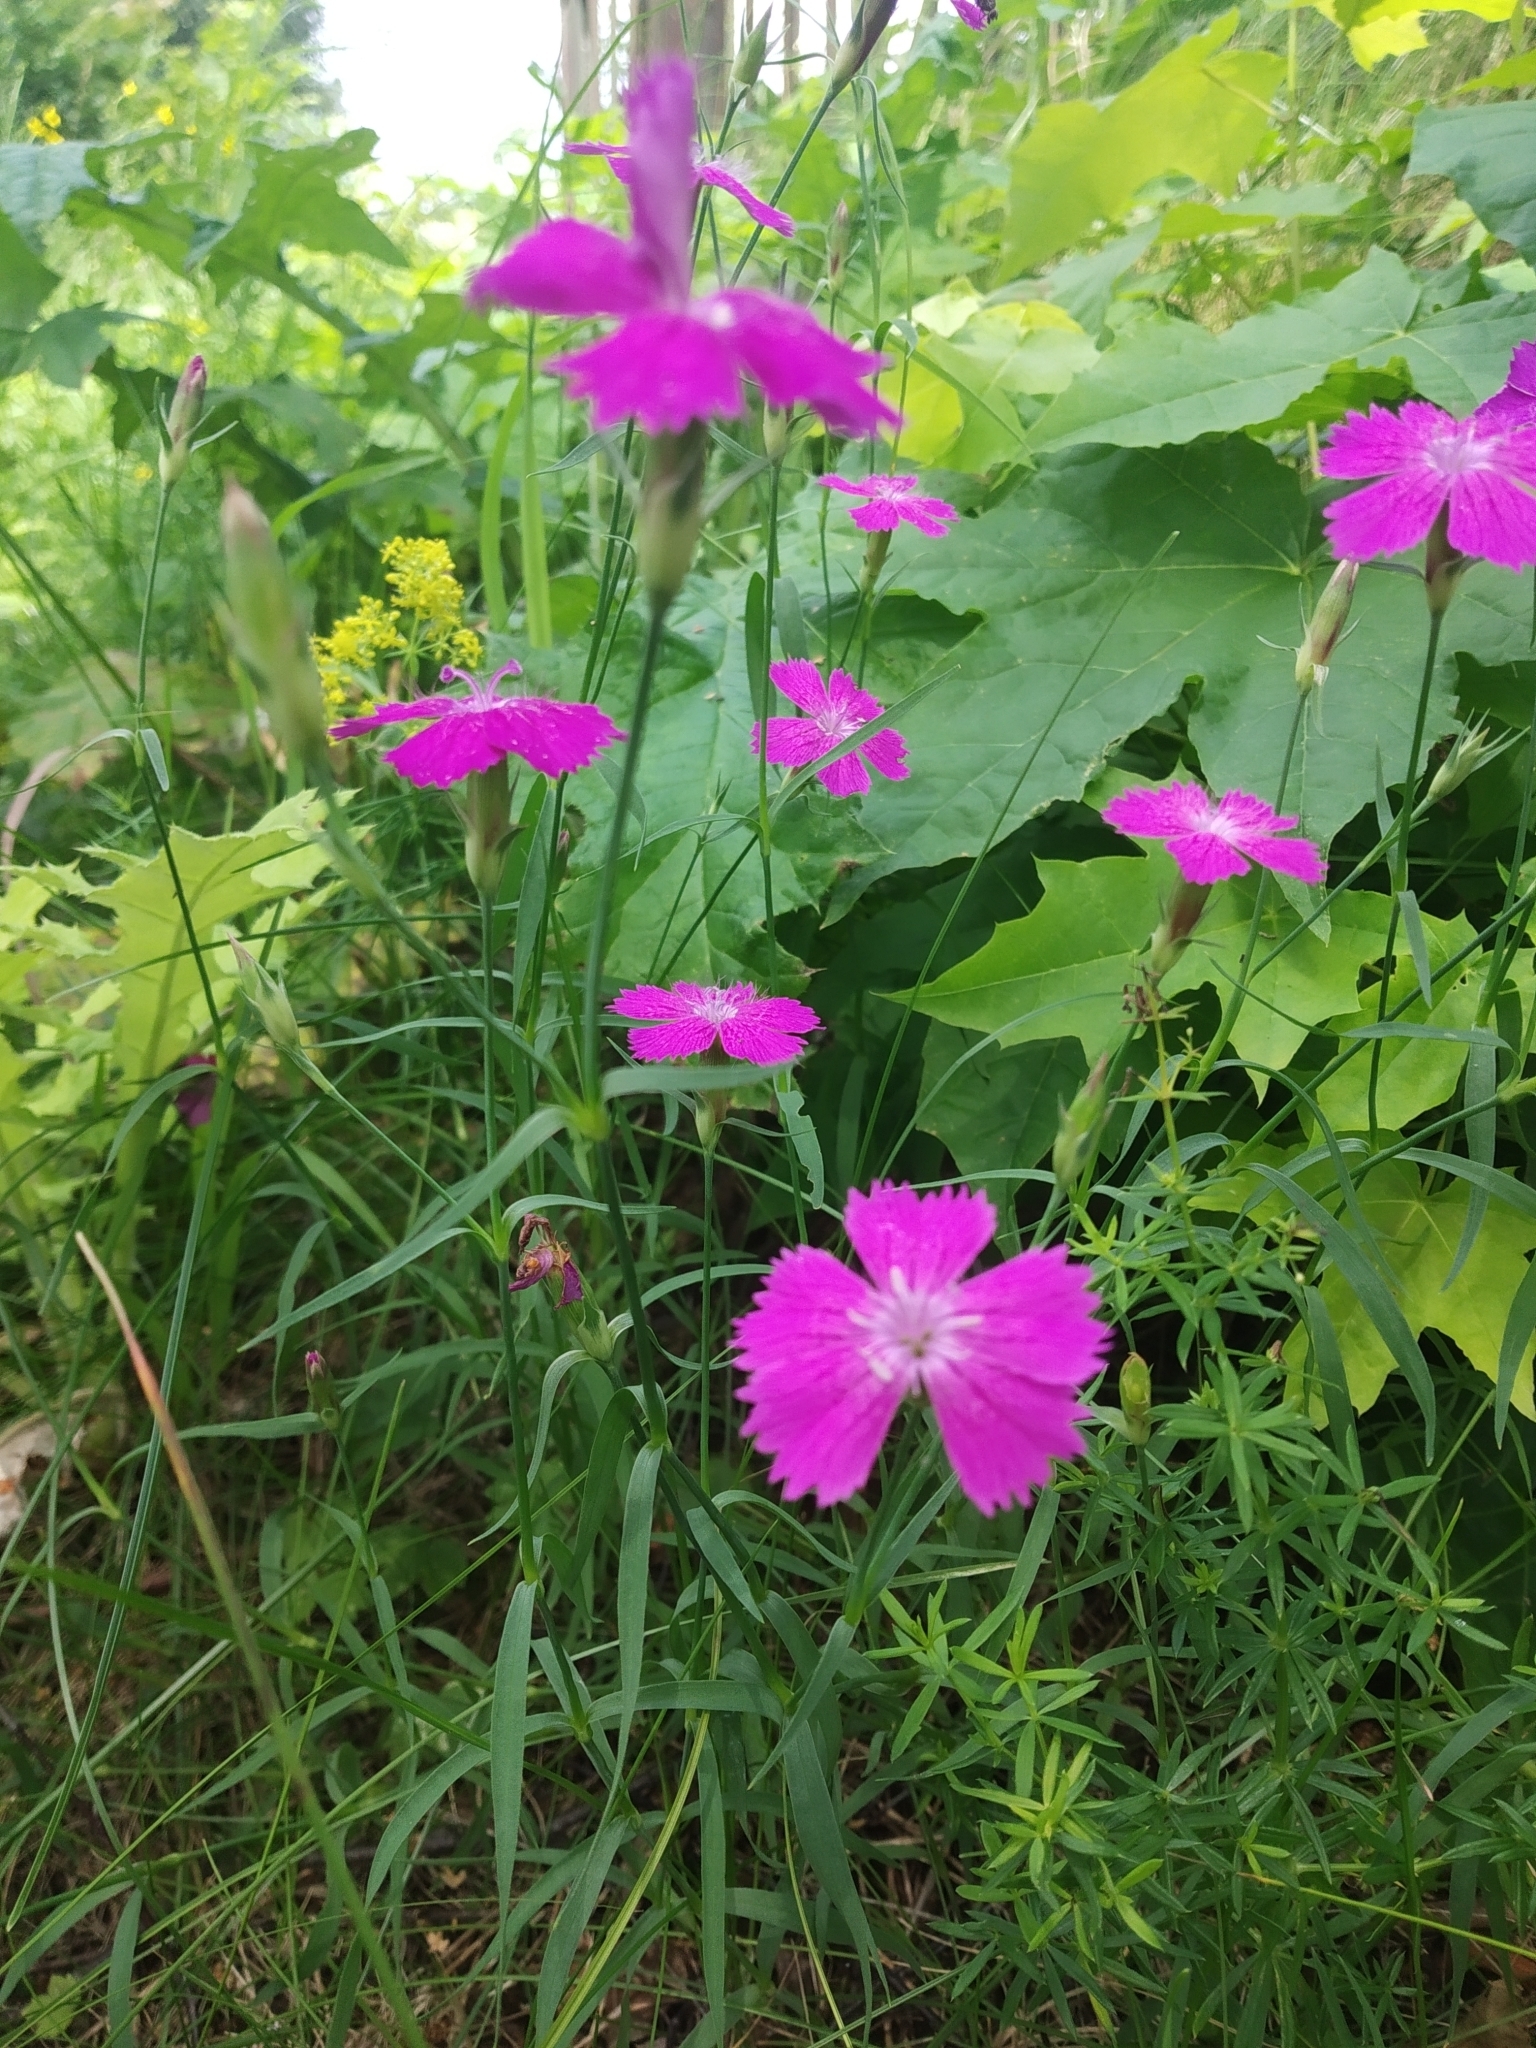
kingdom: Plantae
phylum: Tracheophyta
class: Magnoliopsida
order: Caryophyllales
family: Caryophyllaceae
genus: Dianthus
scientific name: Dianthus chinensis
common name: Rainbow pink
